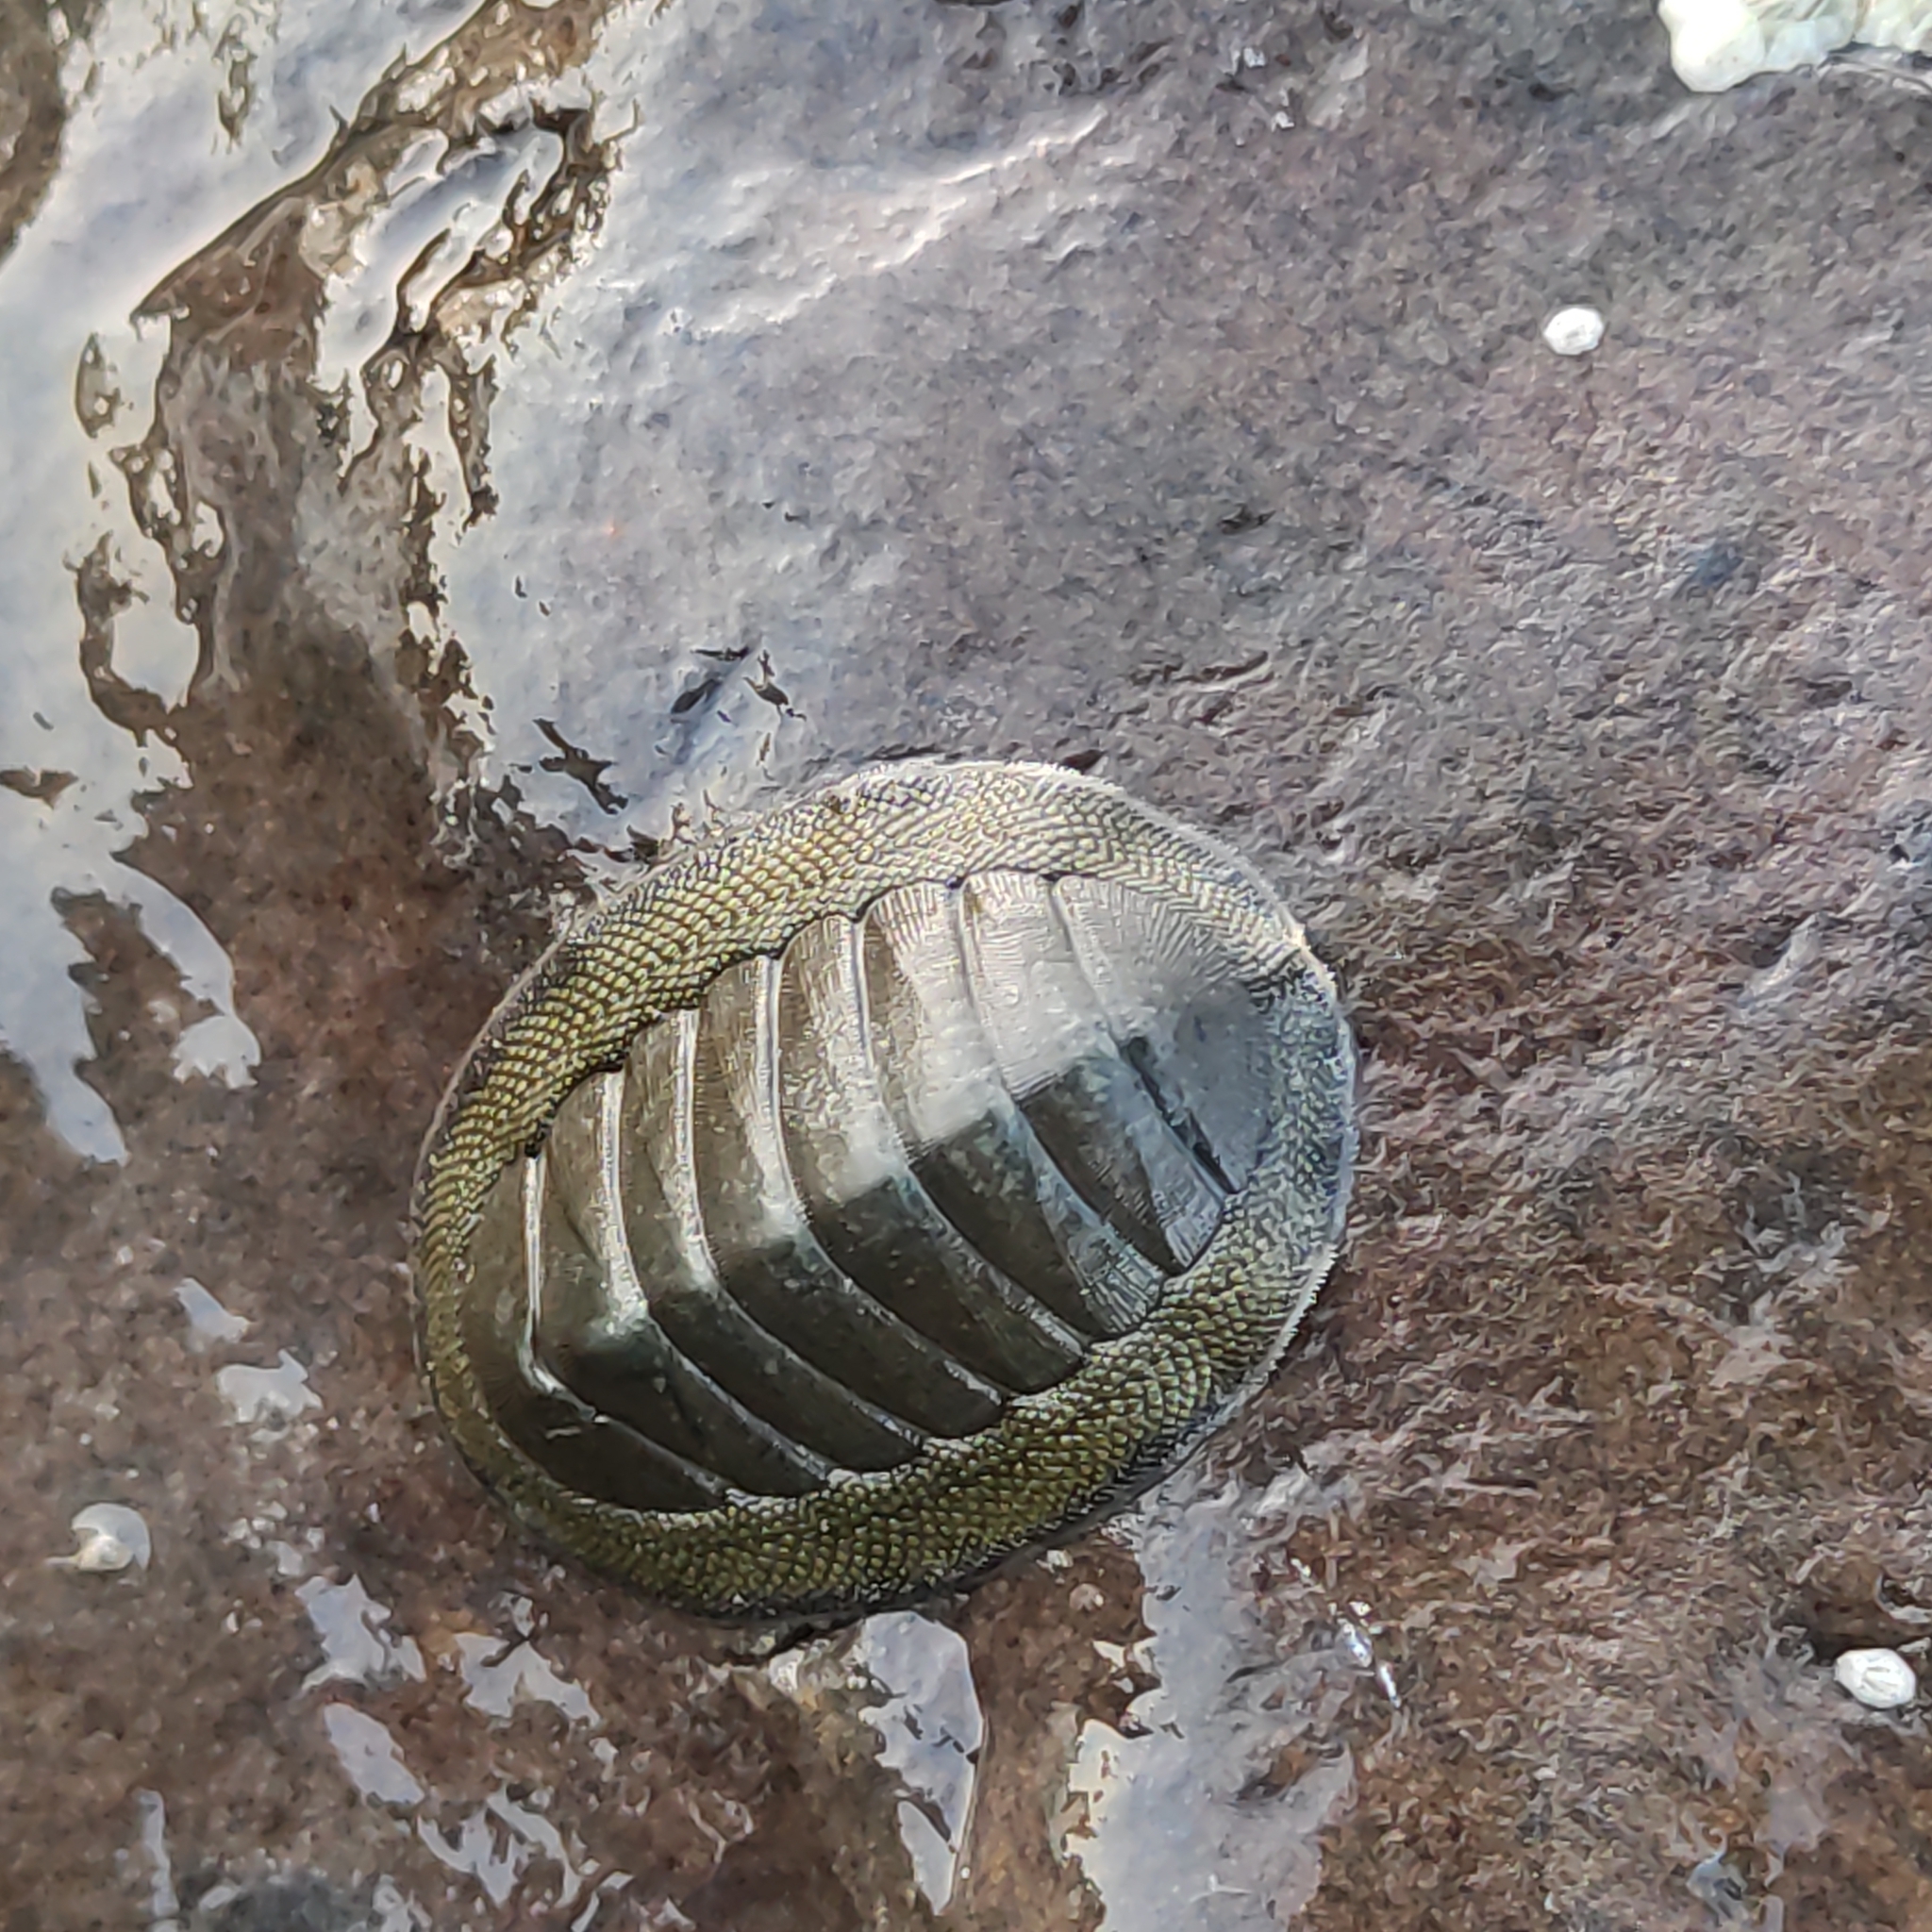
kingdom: Animalia
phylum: Mollusca
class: Polyplacophora
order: Chitonida
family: Chitonidae
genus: Chiton
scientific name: Chiton glaucus
